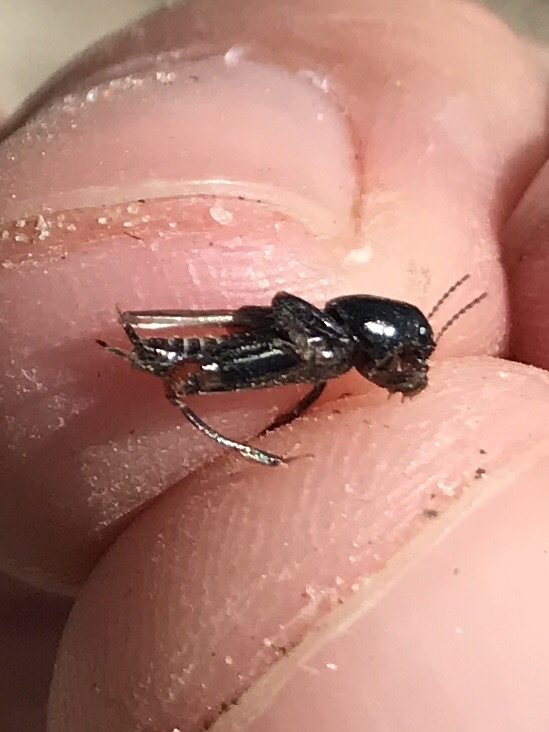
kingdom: Animalia
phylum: Arthropoda
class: Insecta
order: Orthoptera
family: Tridactylidae
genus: Neotridactylus
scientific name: Neotridactylus apicialis
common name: Larger pygmy locust
